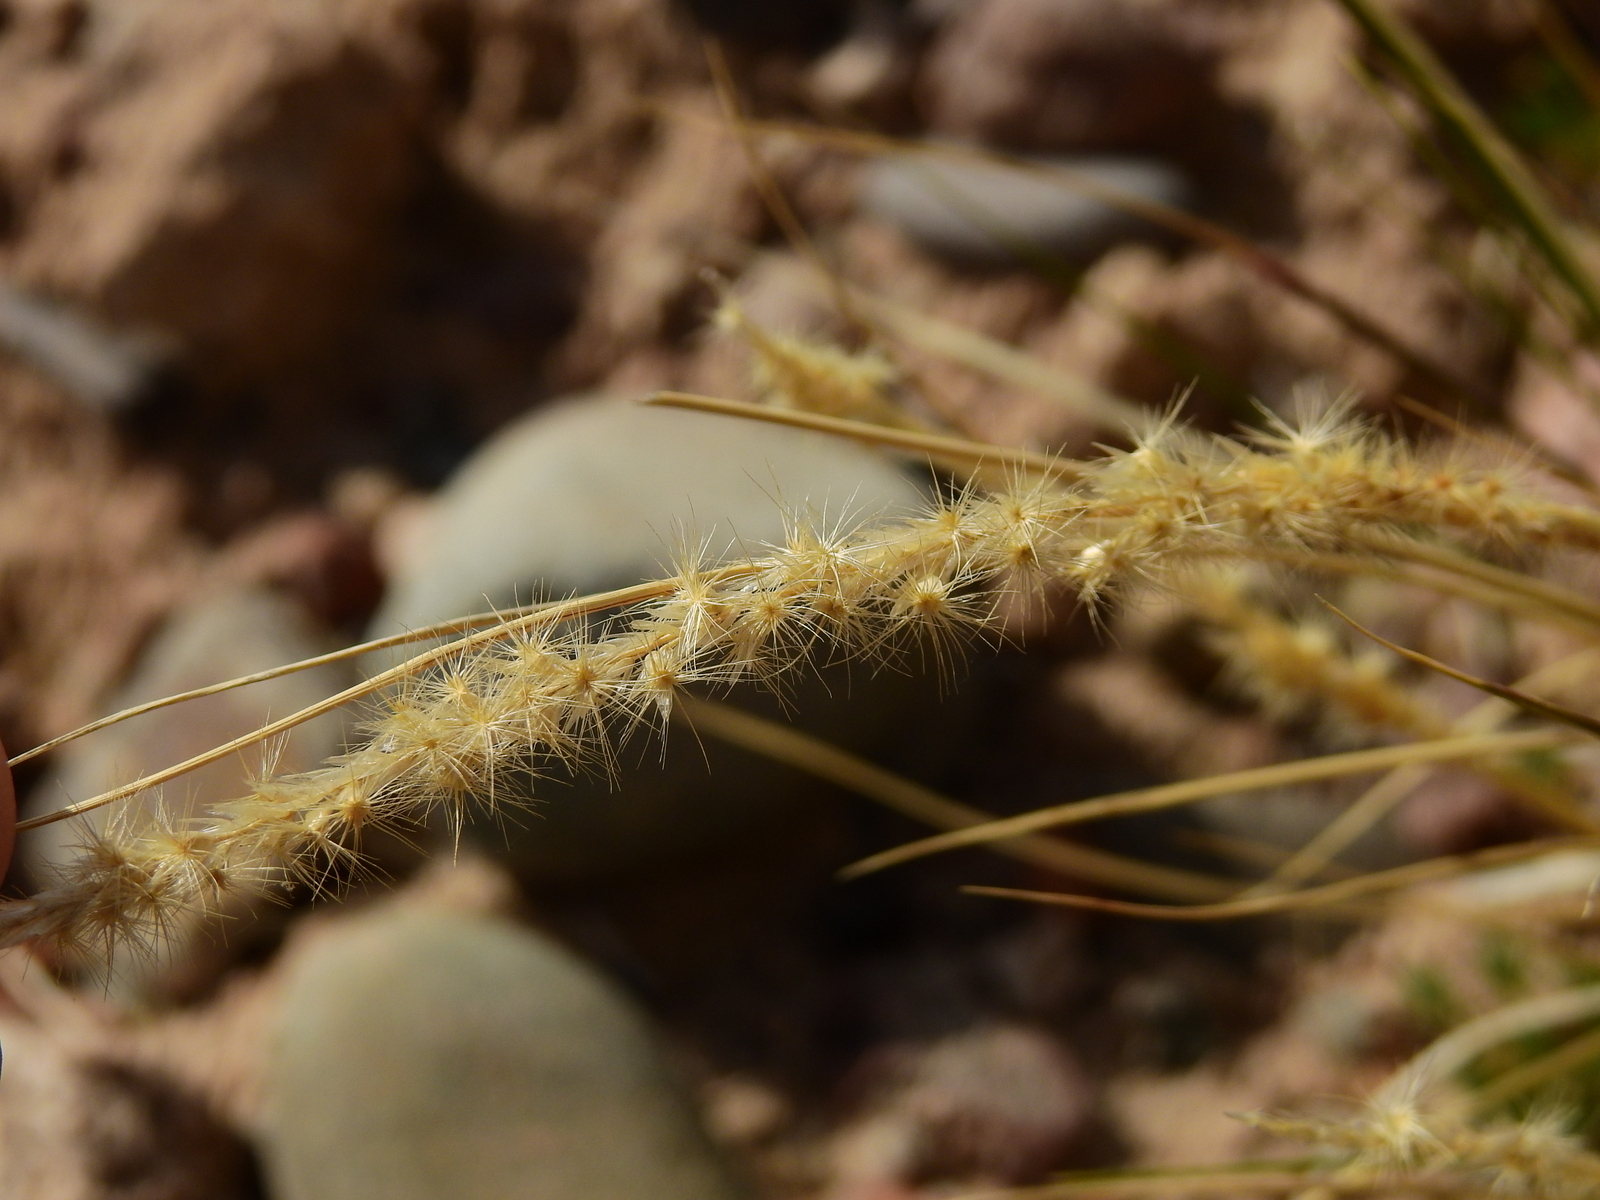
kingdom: Plantae
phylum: Tracheophyta
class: Liliopsida
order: Poales
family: Poaceae
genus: Pappophorum
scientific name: Pappophorum
